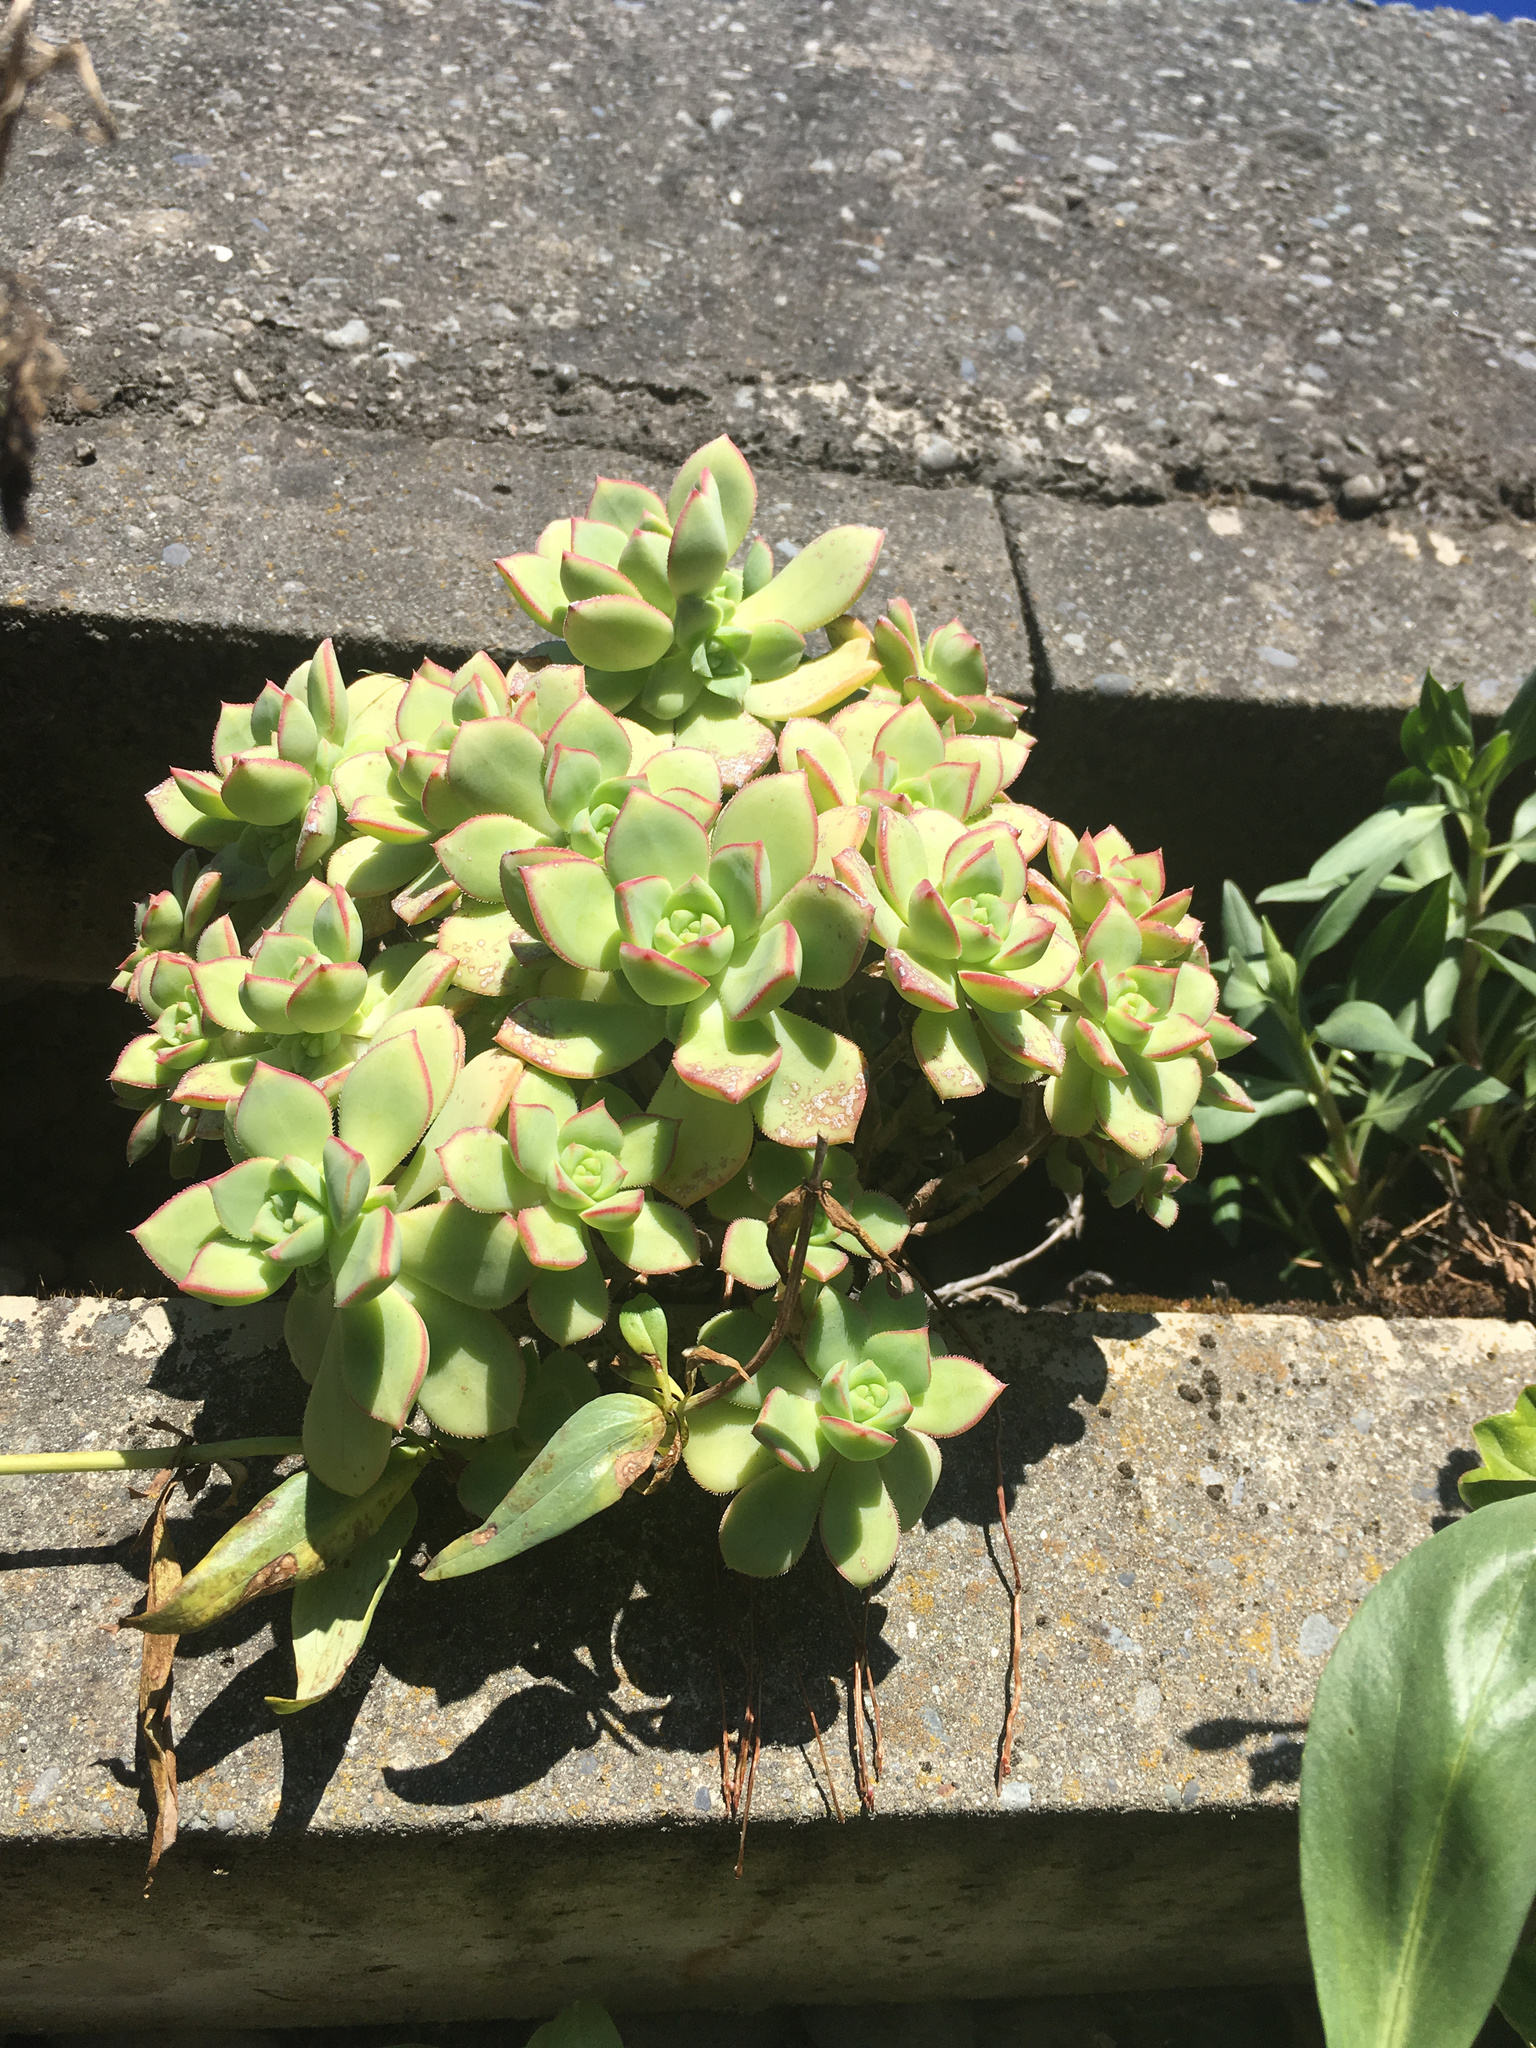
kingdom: Plantae
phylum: Tracheophyta
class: Magnoliopsida
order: Saxifragales
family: Crassulaceae
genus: Aeonium
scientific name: Aeonium haworthii
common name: Haworth's aeonium
